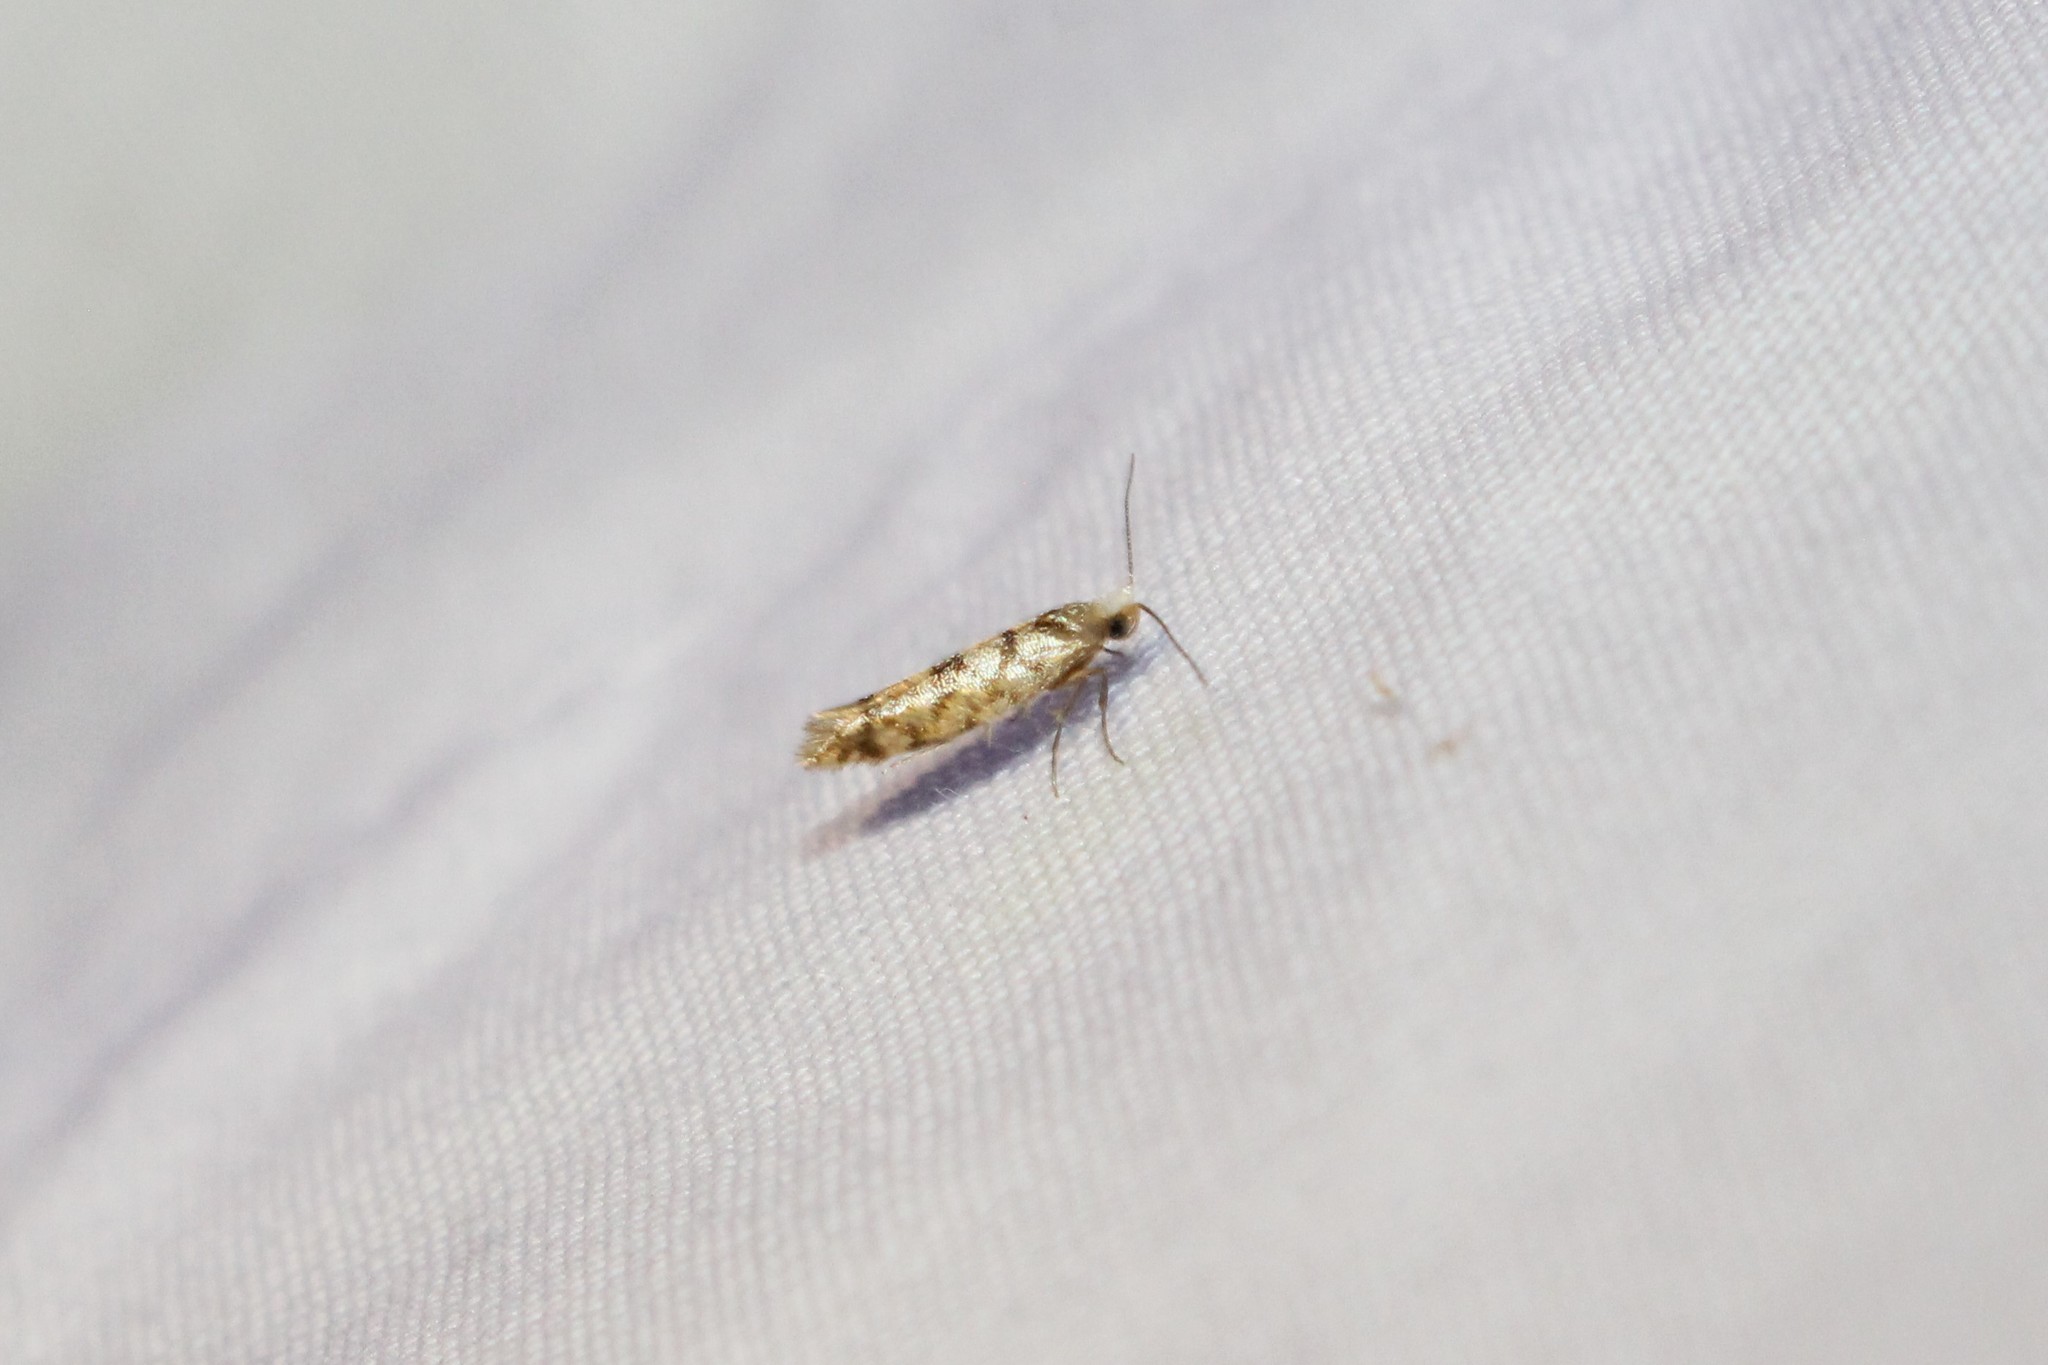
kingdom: Animalia
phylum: Arthropoda
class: Insecta
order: Lepidoptera
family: Argyresthiidae
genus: Argyresthia
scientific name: Argyresthia alternatella
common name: Juniper seed moth
